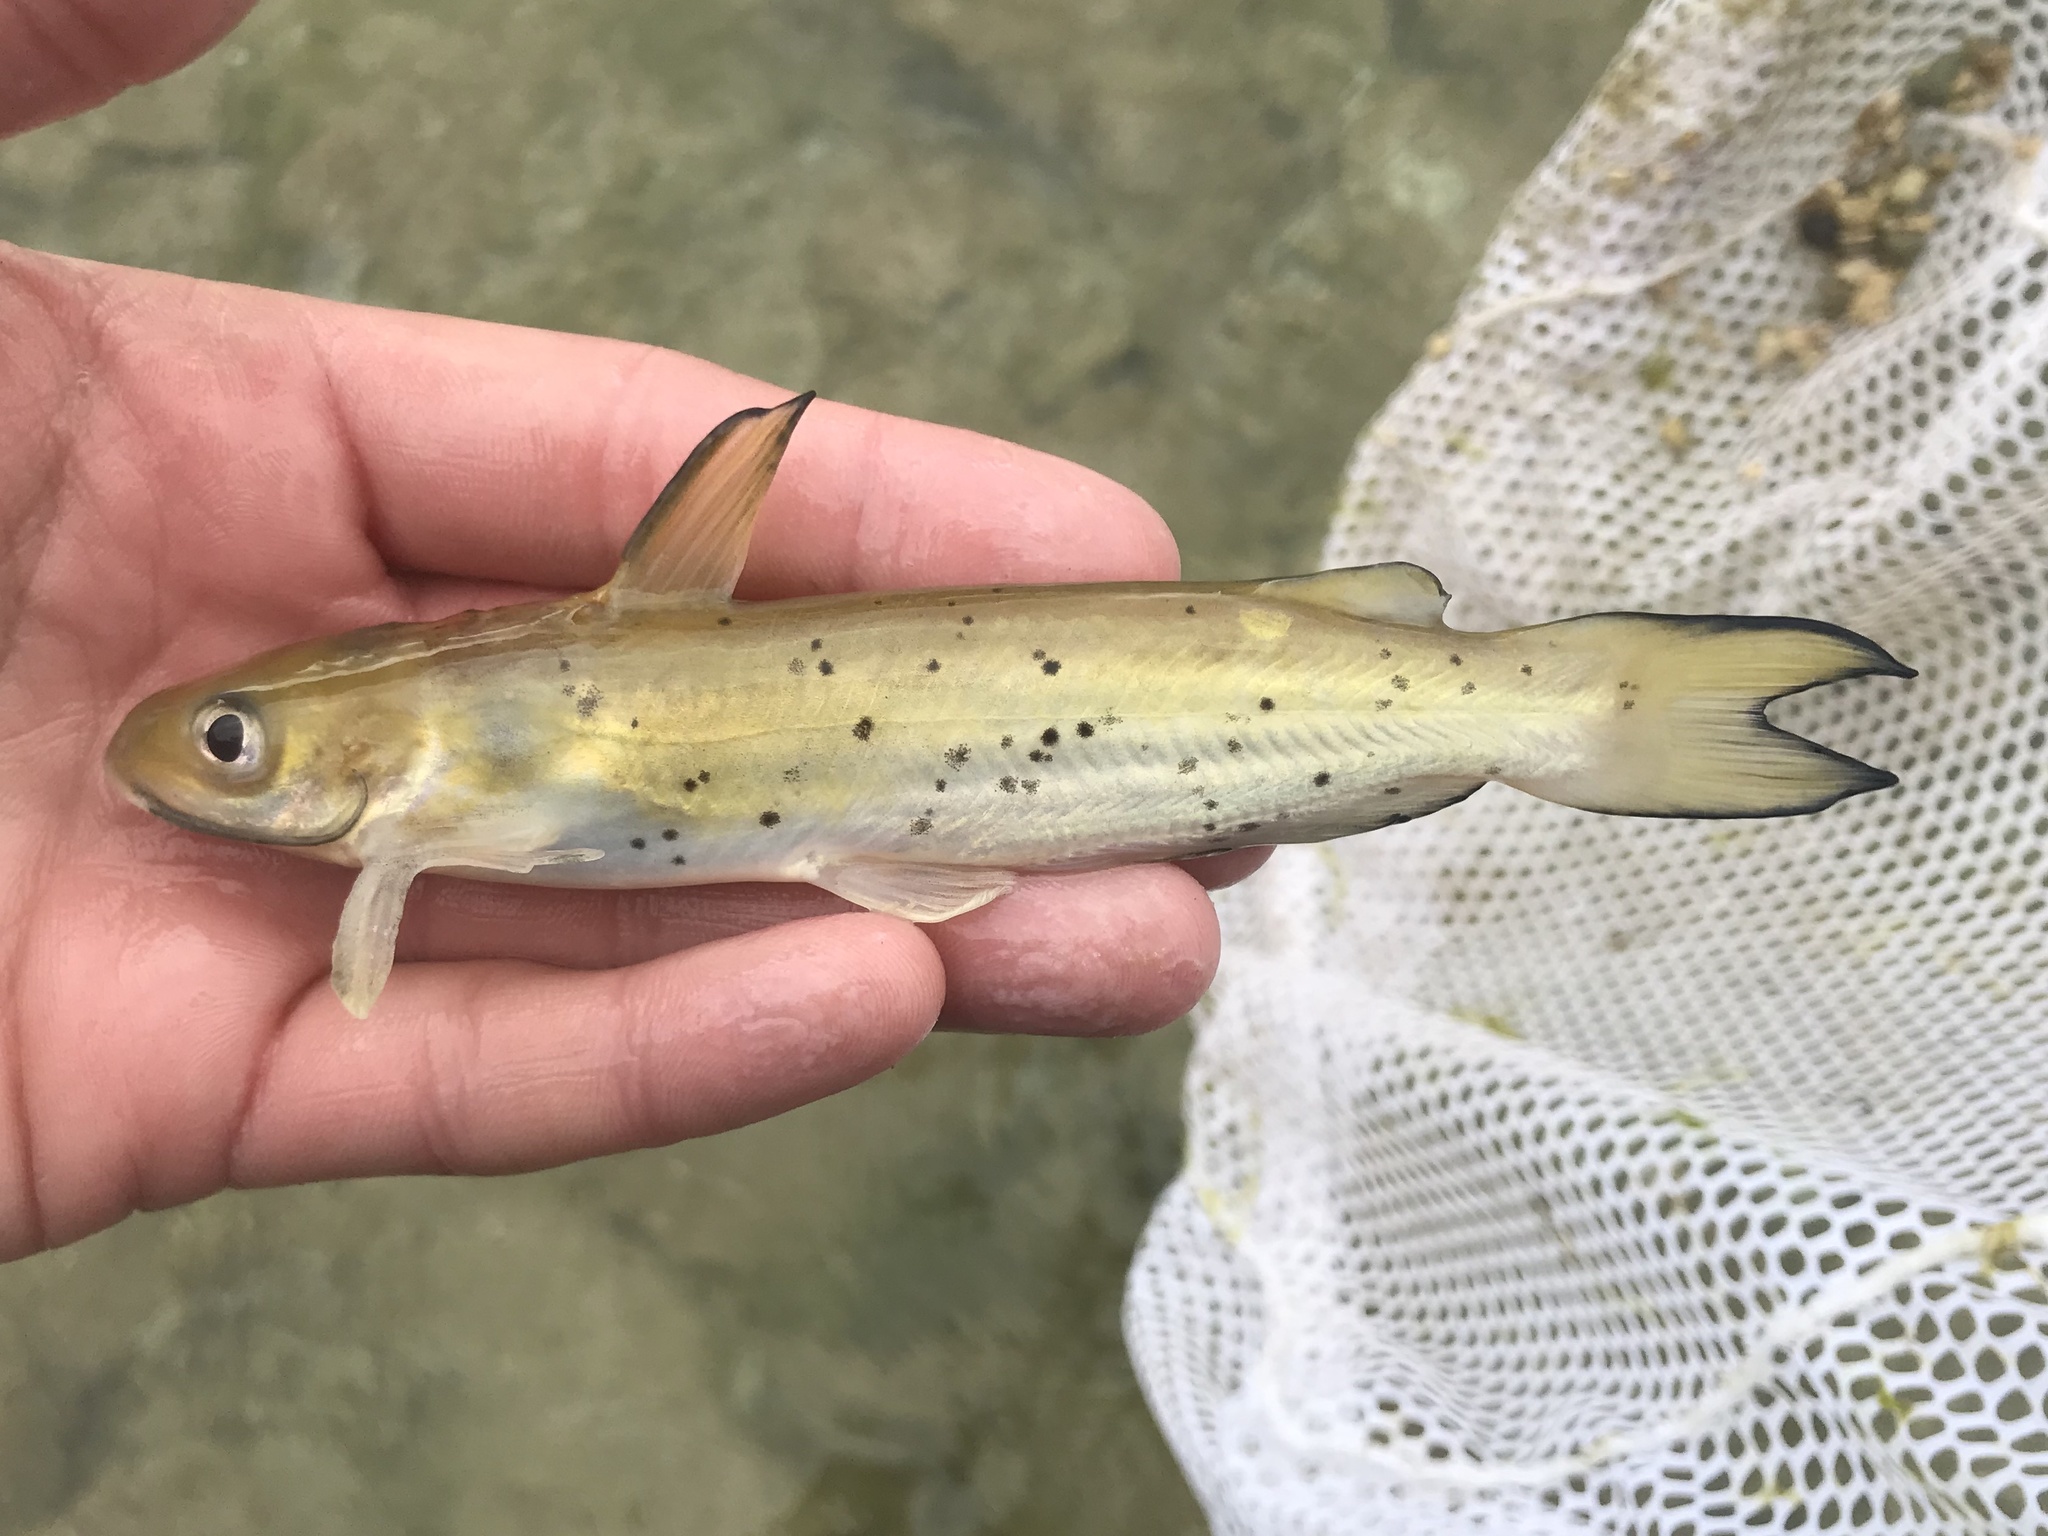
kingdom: Animalia
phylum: Chordata
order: Siluriformes
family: Ictaluridae
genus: Ictalurus
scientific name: Ictalurus punctatus
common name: Channel catfish
